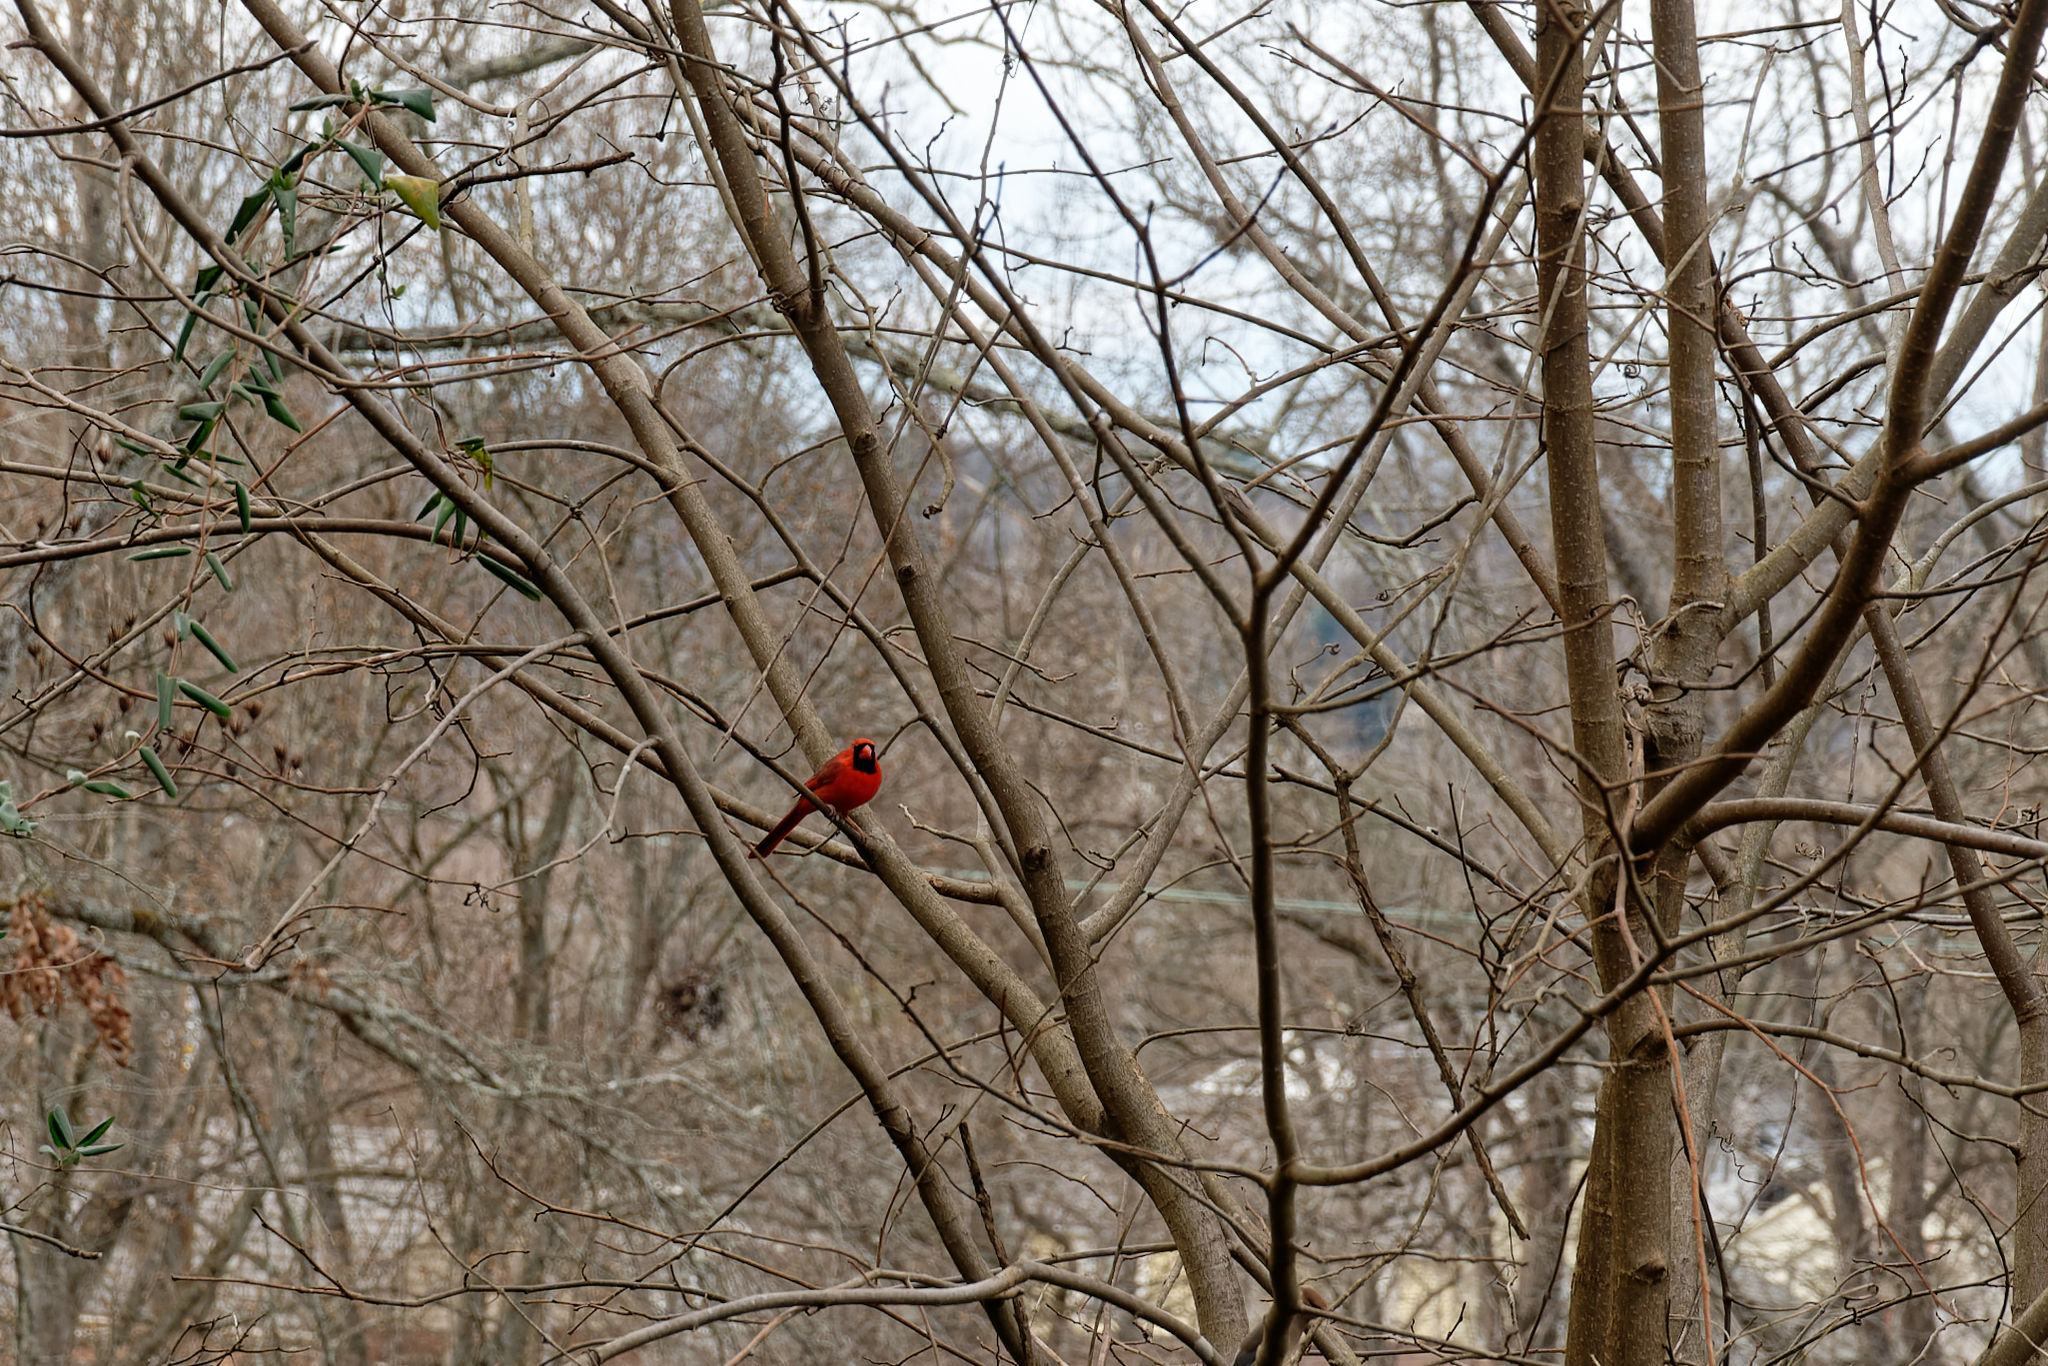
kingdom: Animalia
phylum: Chordata
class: Aves
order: Passeriformes
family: Cardinalidae
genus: Cardinalis
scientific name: Cardinalis cardinalis
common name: Northern cardinal
